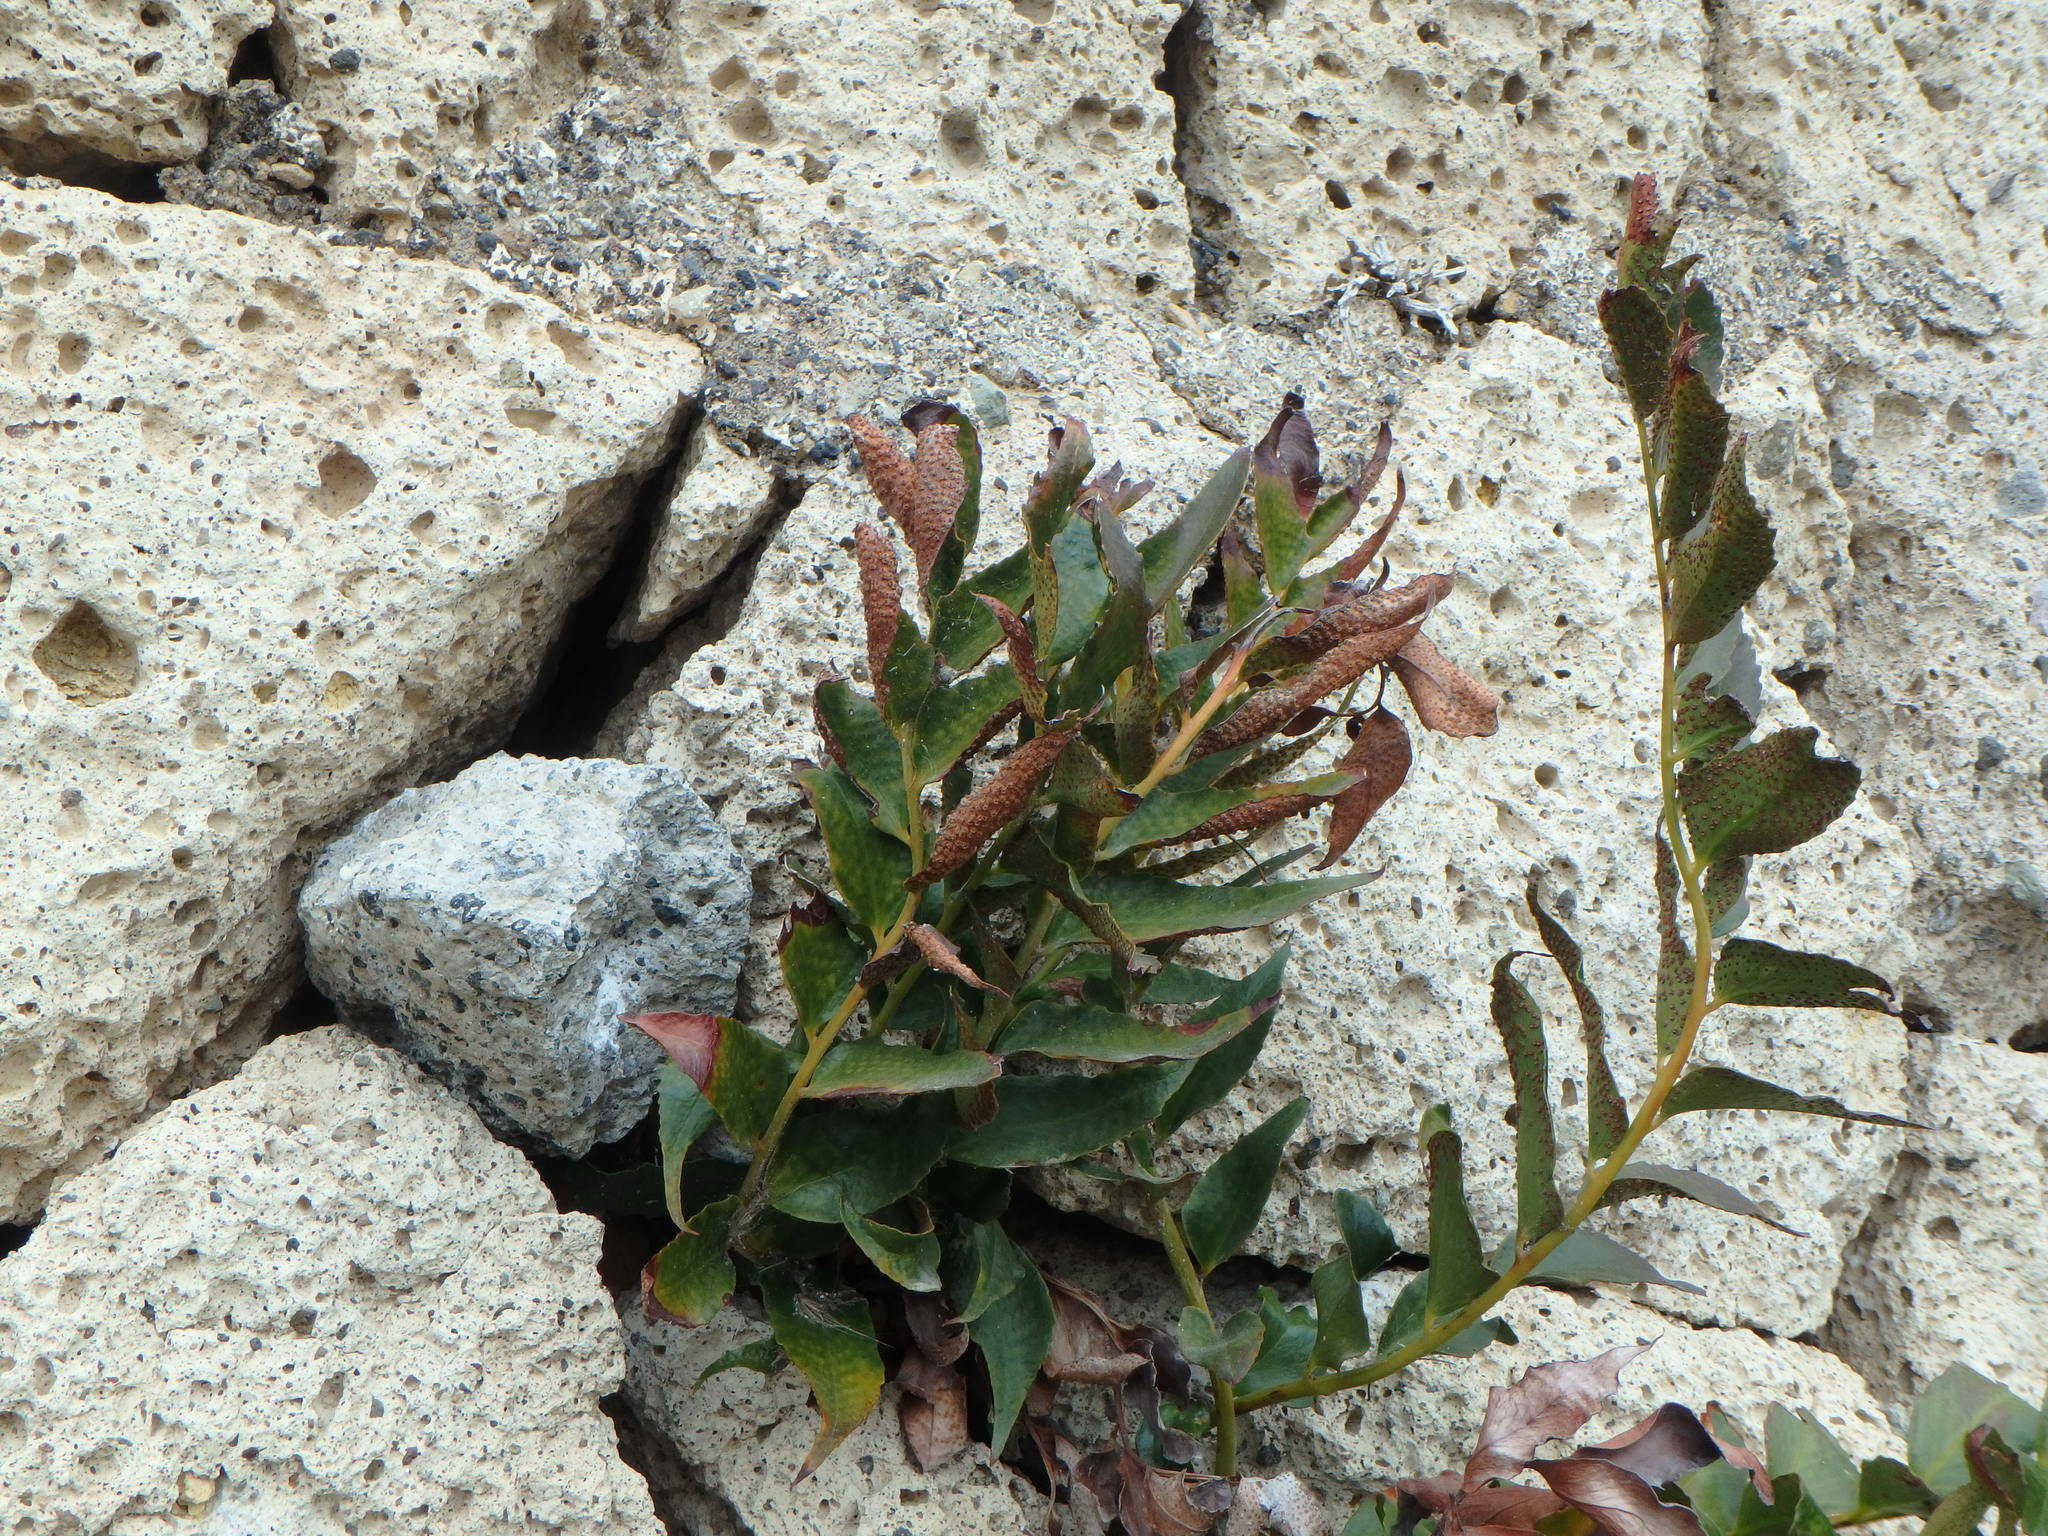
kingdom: Plantae
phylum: Tracheophyta
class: Polypodiopsida
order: Polypodiales
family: Dryopteridaceae
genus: Cyrtomium
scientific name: Cyrtomium falcatum
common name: House holly-fern
